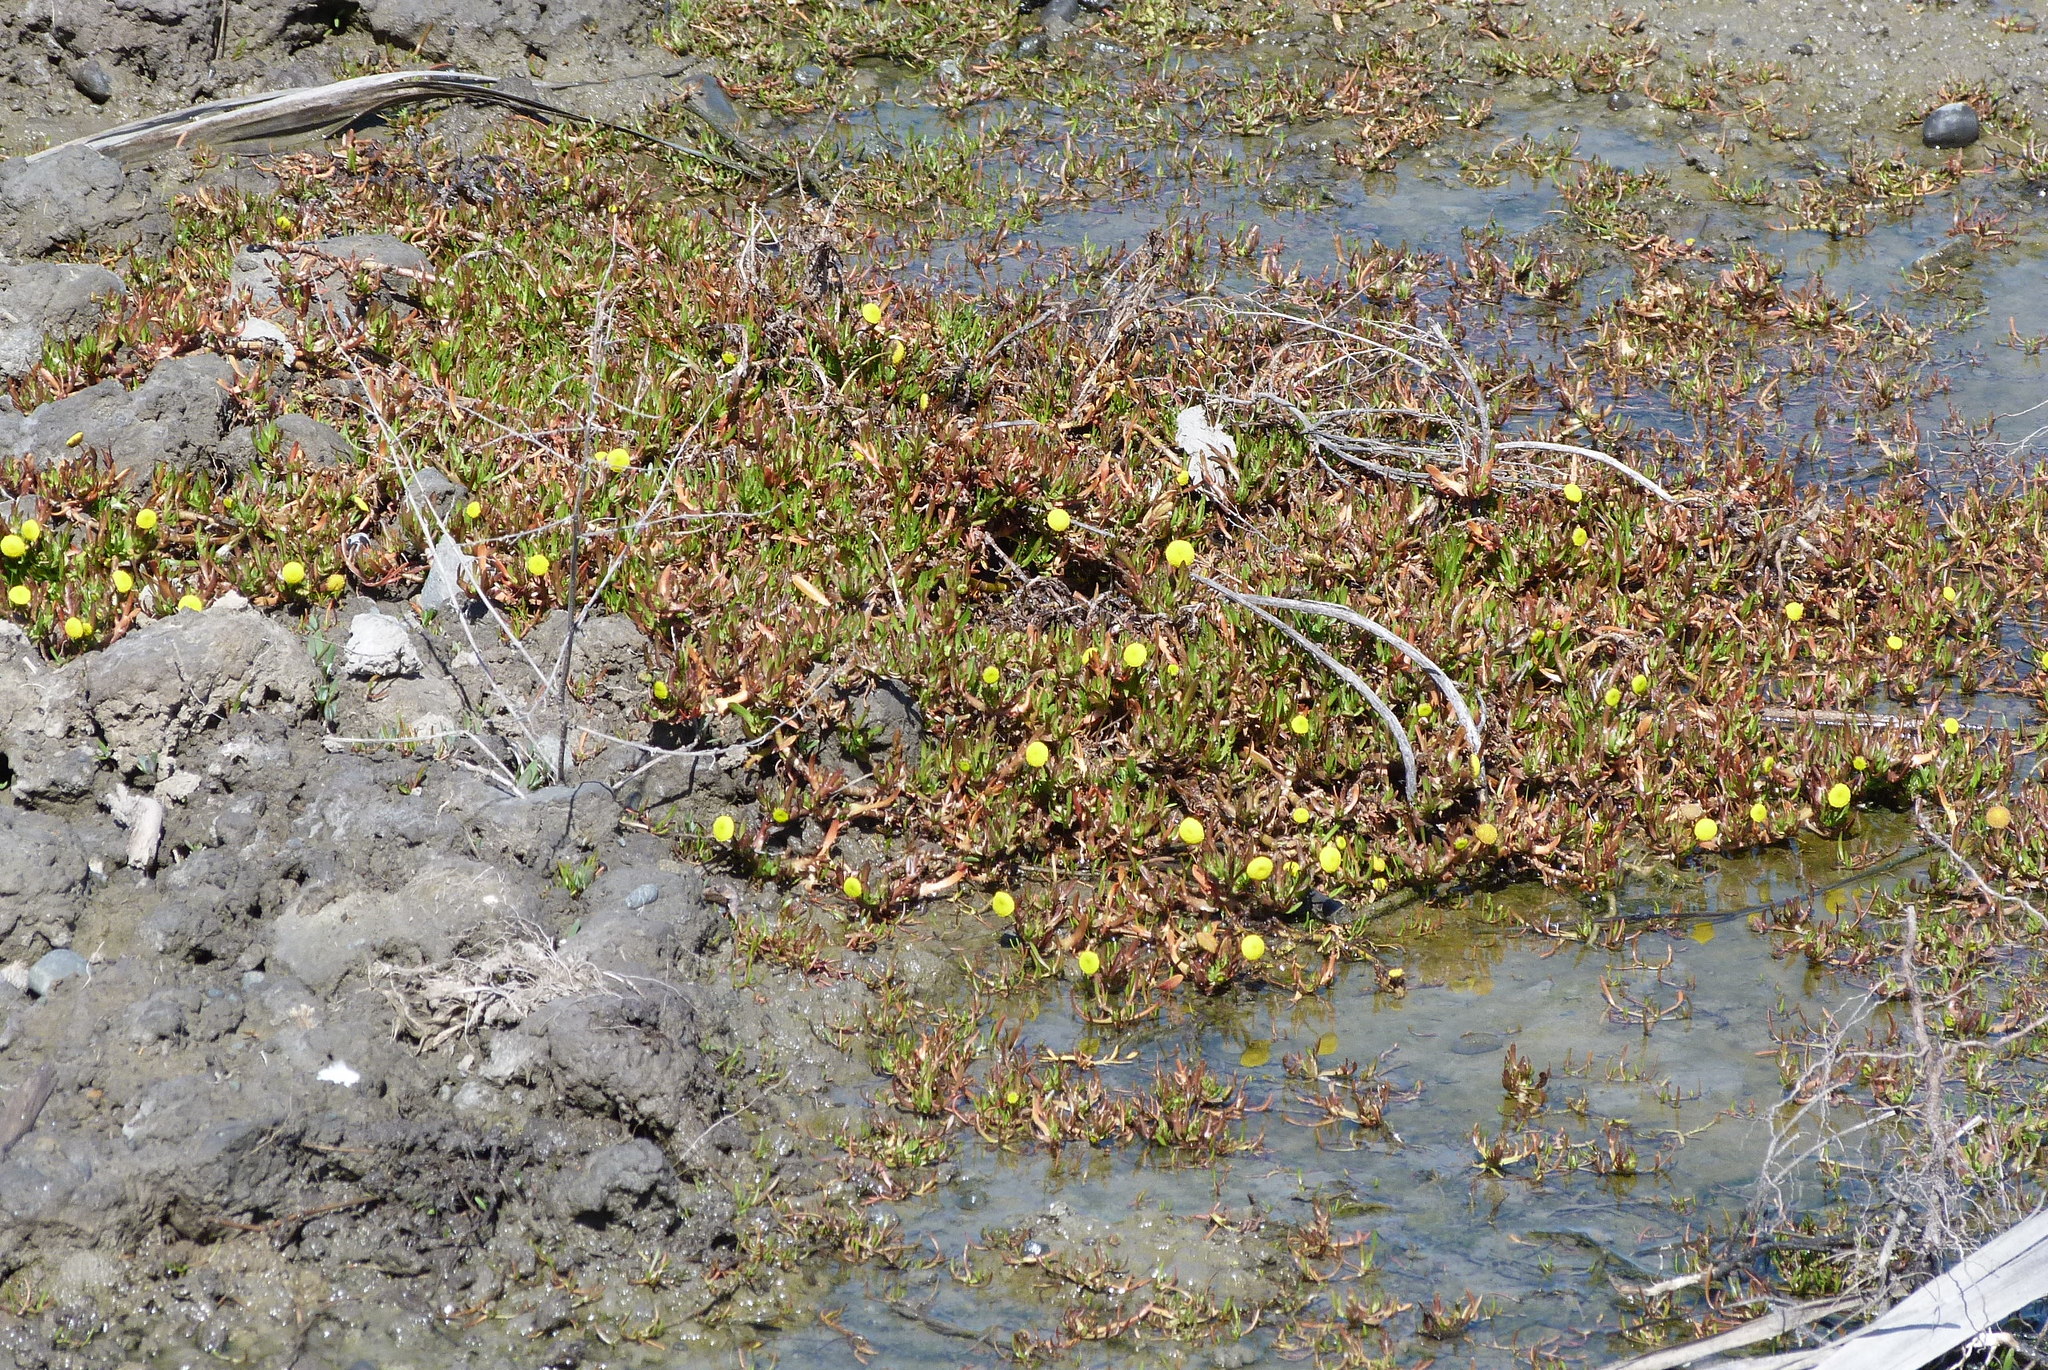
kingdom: Plantae
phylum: Tracheophyta
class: Magnoliopsida
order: Asterales
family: Asteraceae
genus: Cotula
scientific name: Cotula coronopifolia
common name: Buttonweed
